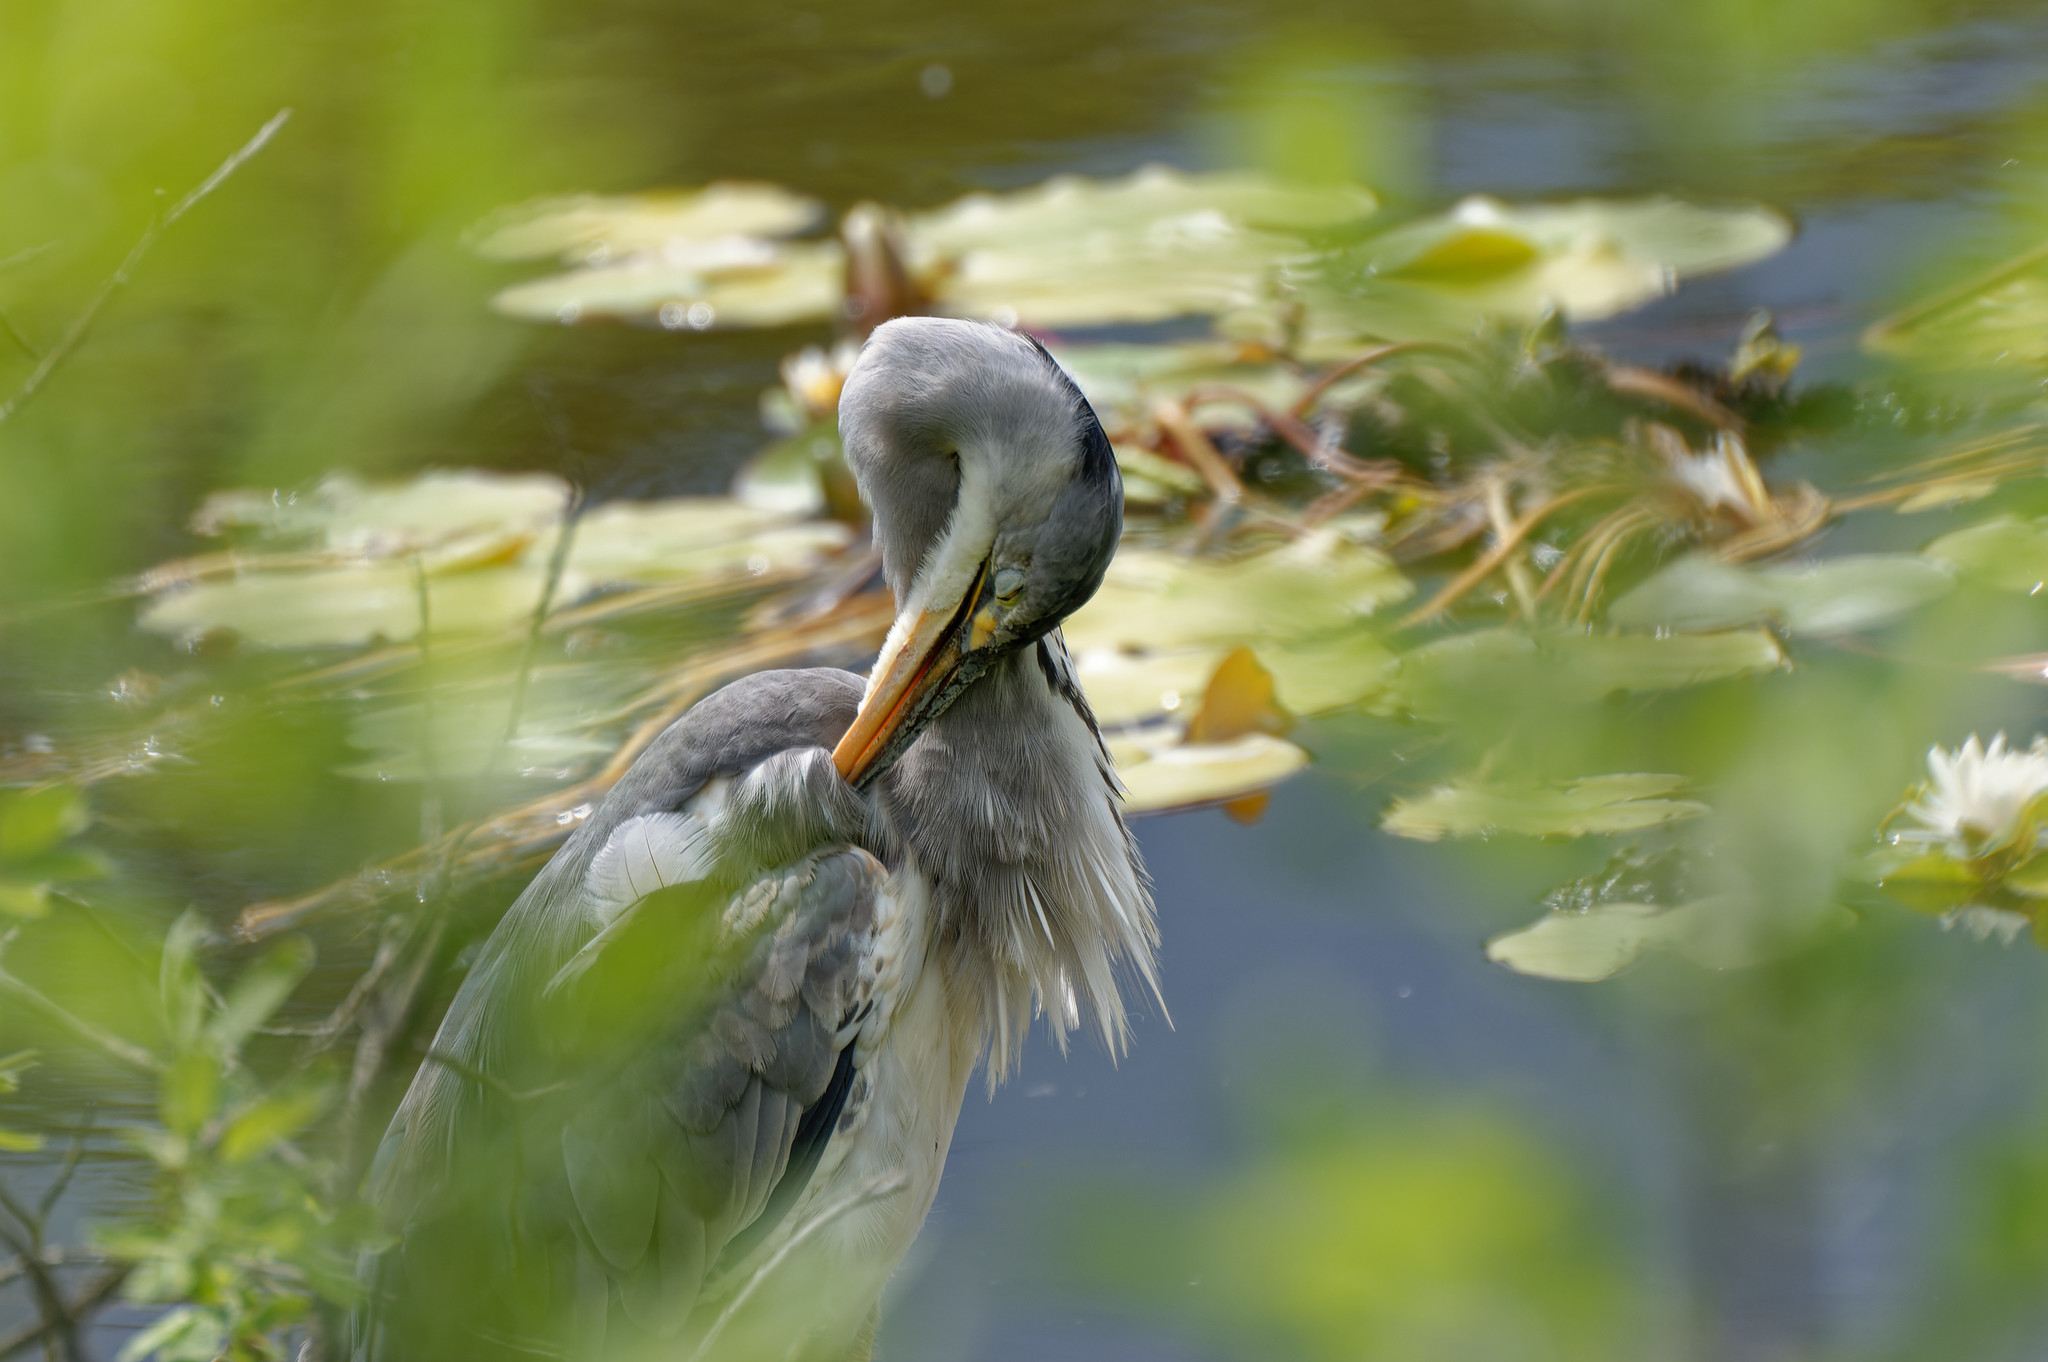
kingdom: Animalia
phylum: Chordata
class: Aves
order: Pelecaniformes
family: Ardeidae
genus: Ardea
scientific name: Ardea cinerea
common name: Grey heron
